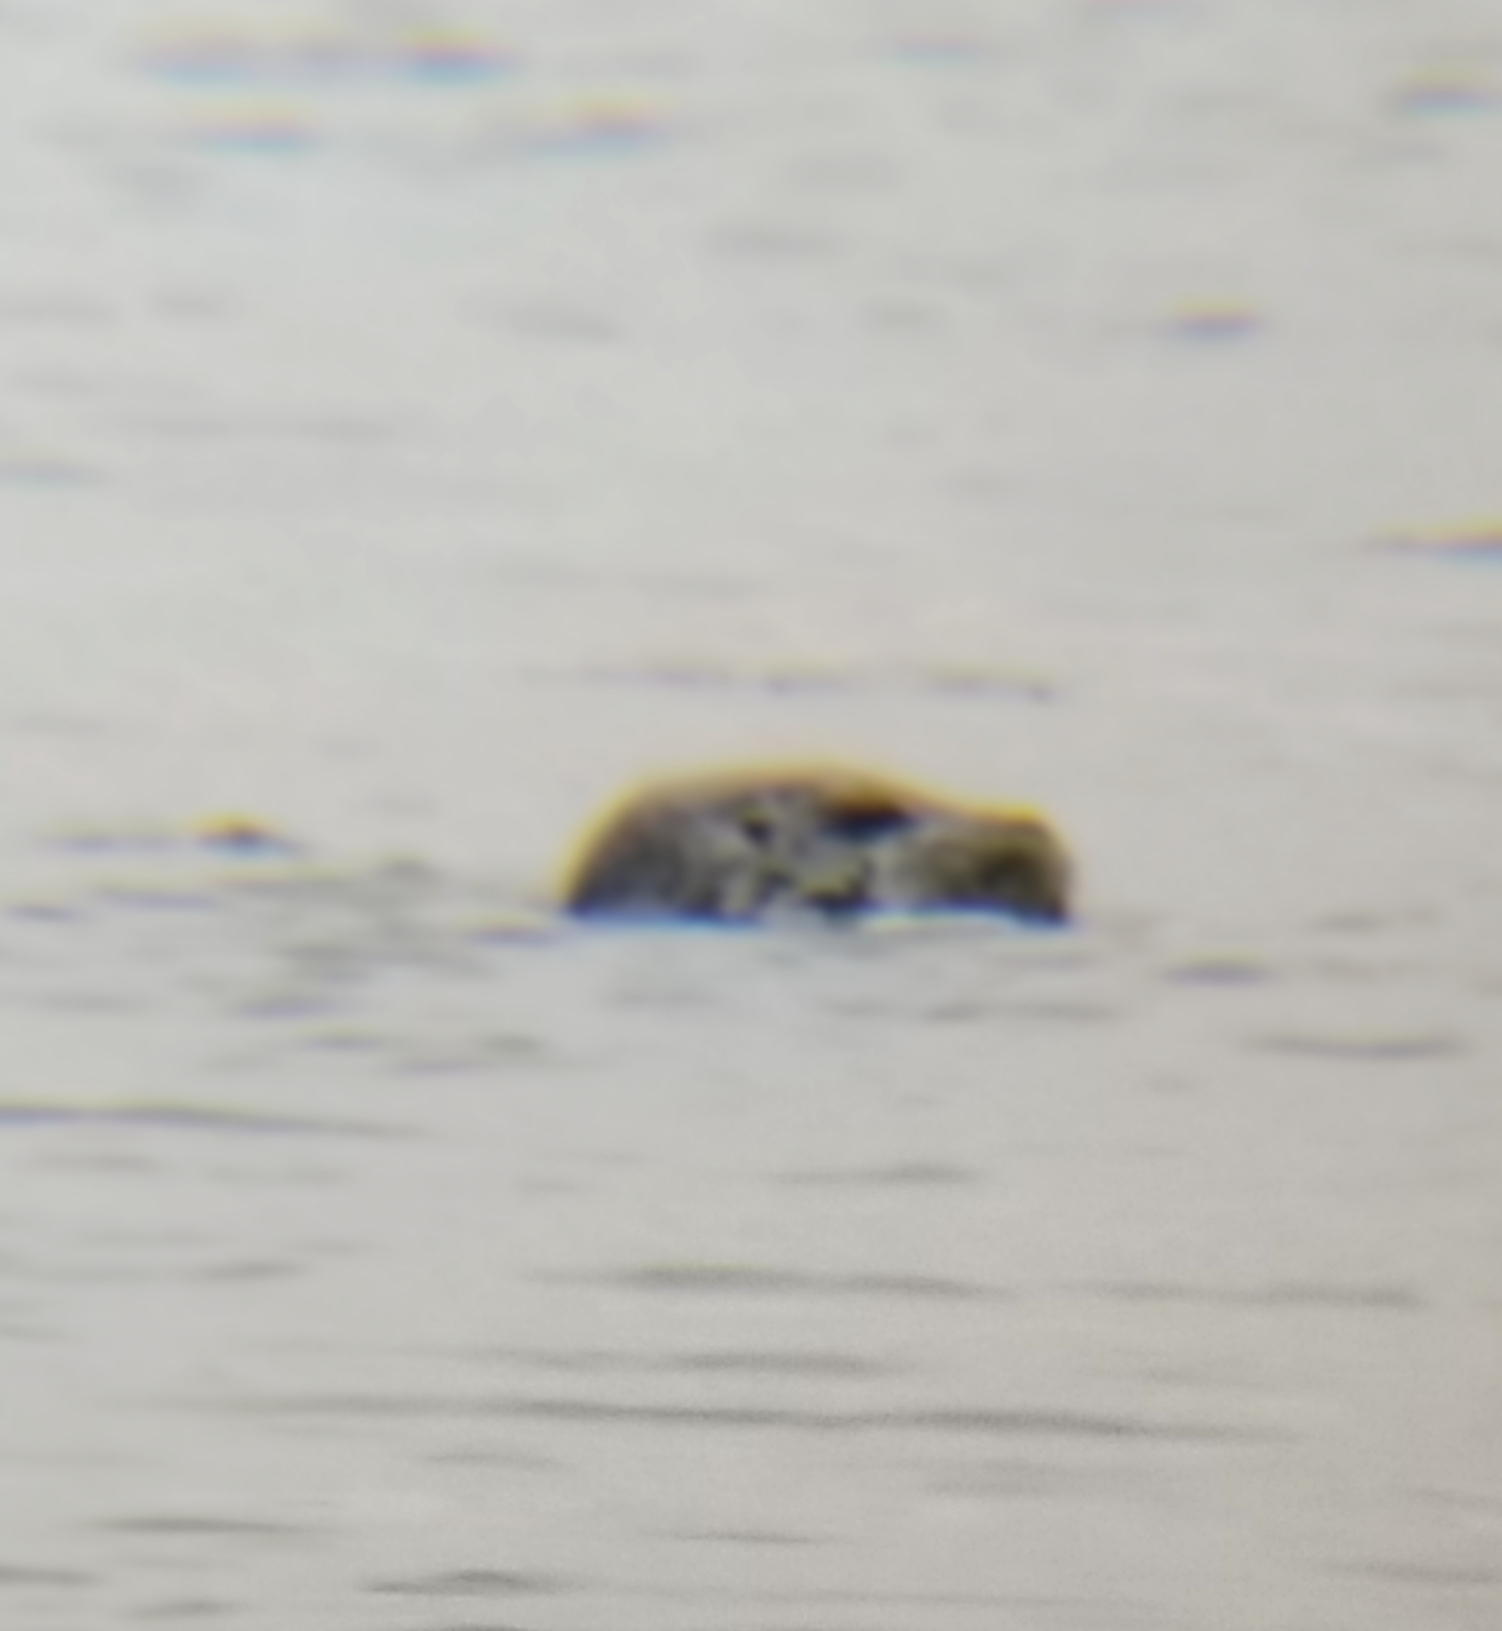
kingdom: Animalia
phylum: Chordata
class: Mammalia
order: Carnivora
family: Phocidae
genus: Phoca
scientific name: Phoca vitulina
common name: Harbor seal
